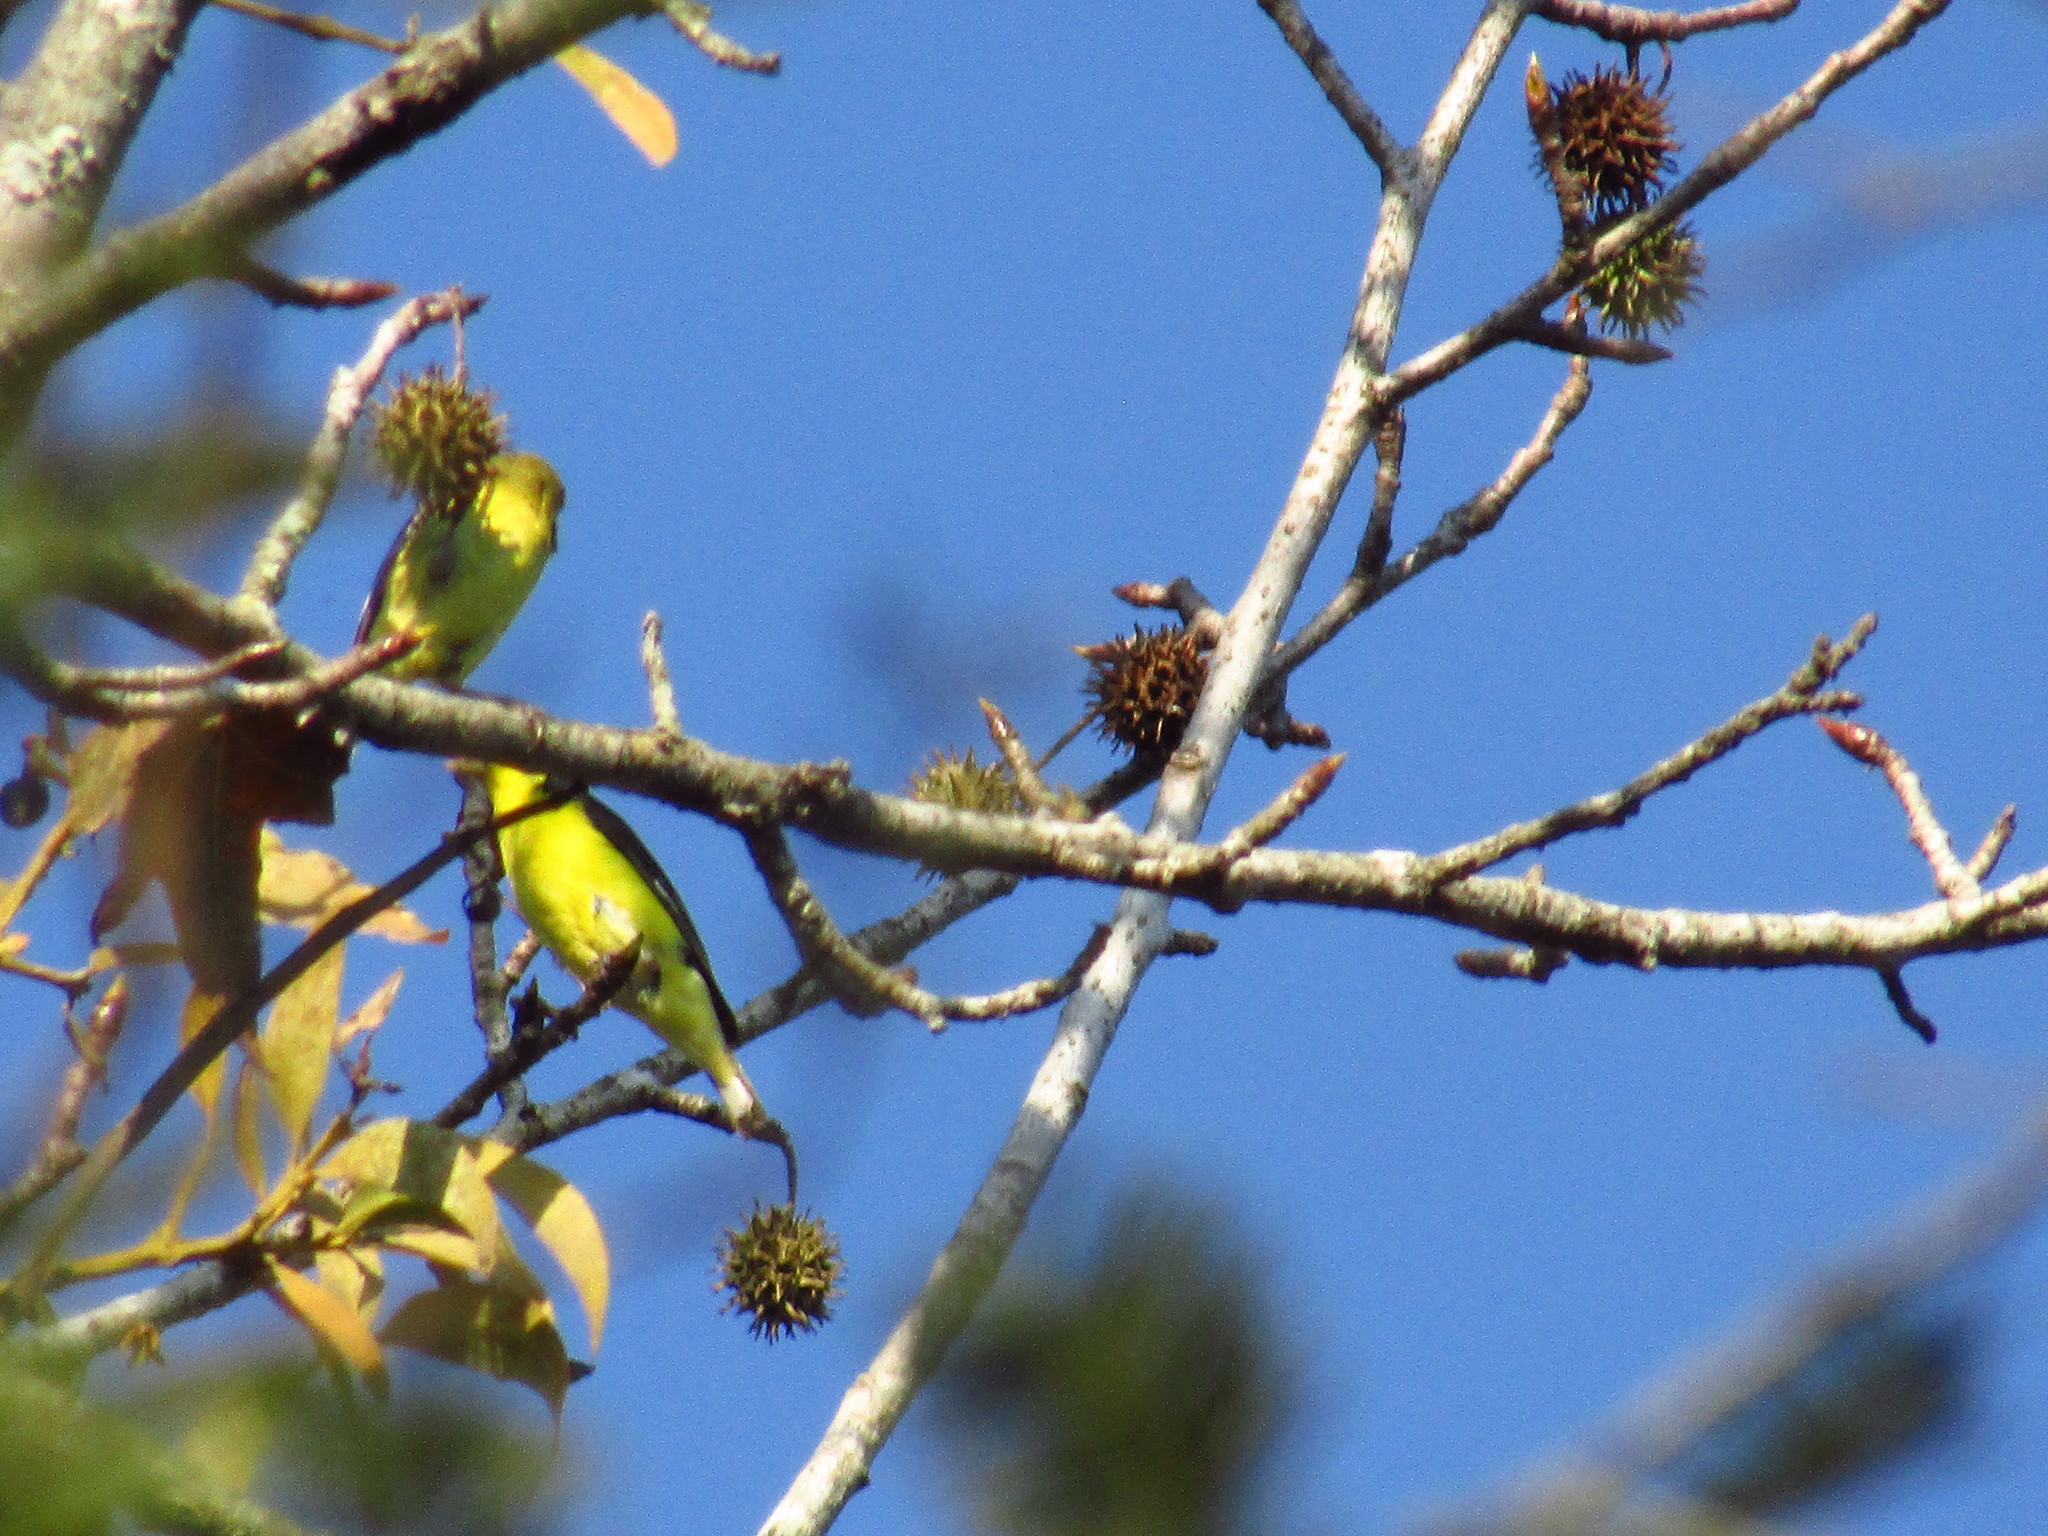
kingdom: Animalia
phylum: Chordata
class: Aves
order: Passeriformes
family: Fringillidae
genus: Spinus
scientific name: Spinus psaltria
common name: Lesser goldfinch
